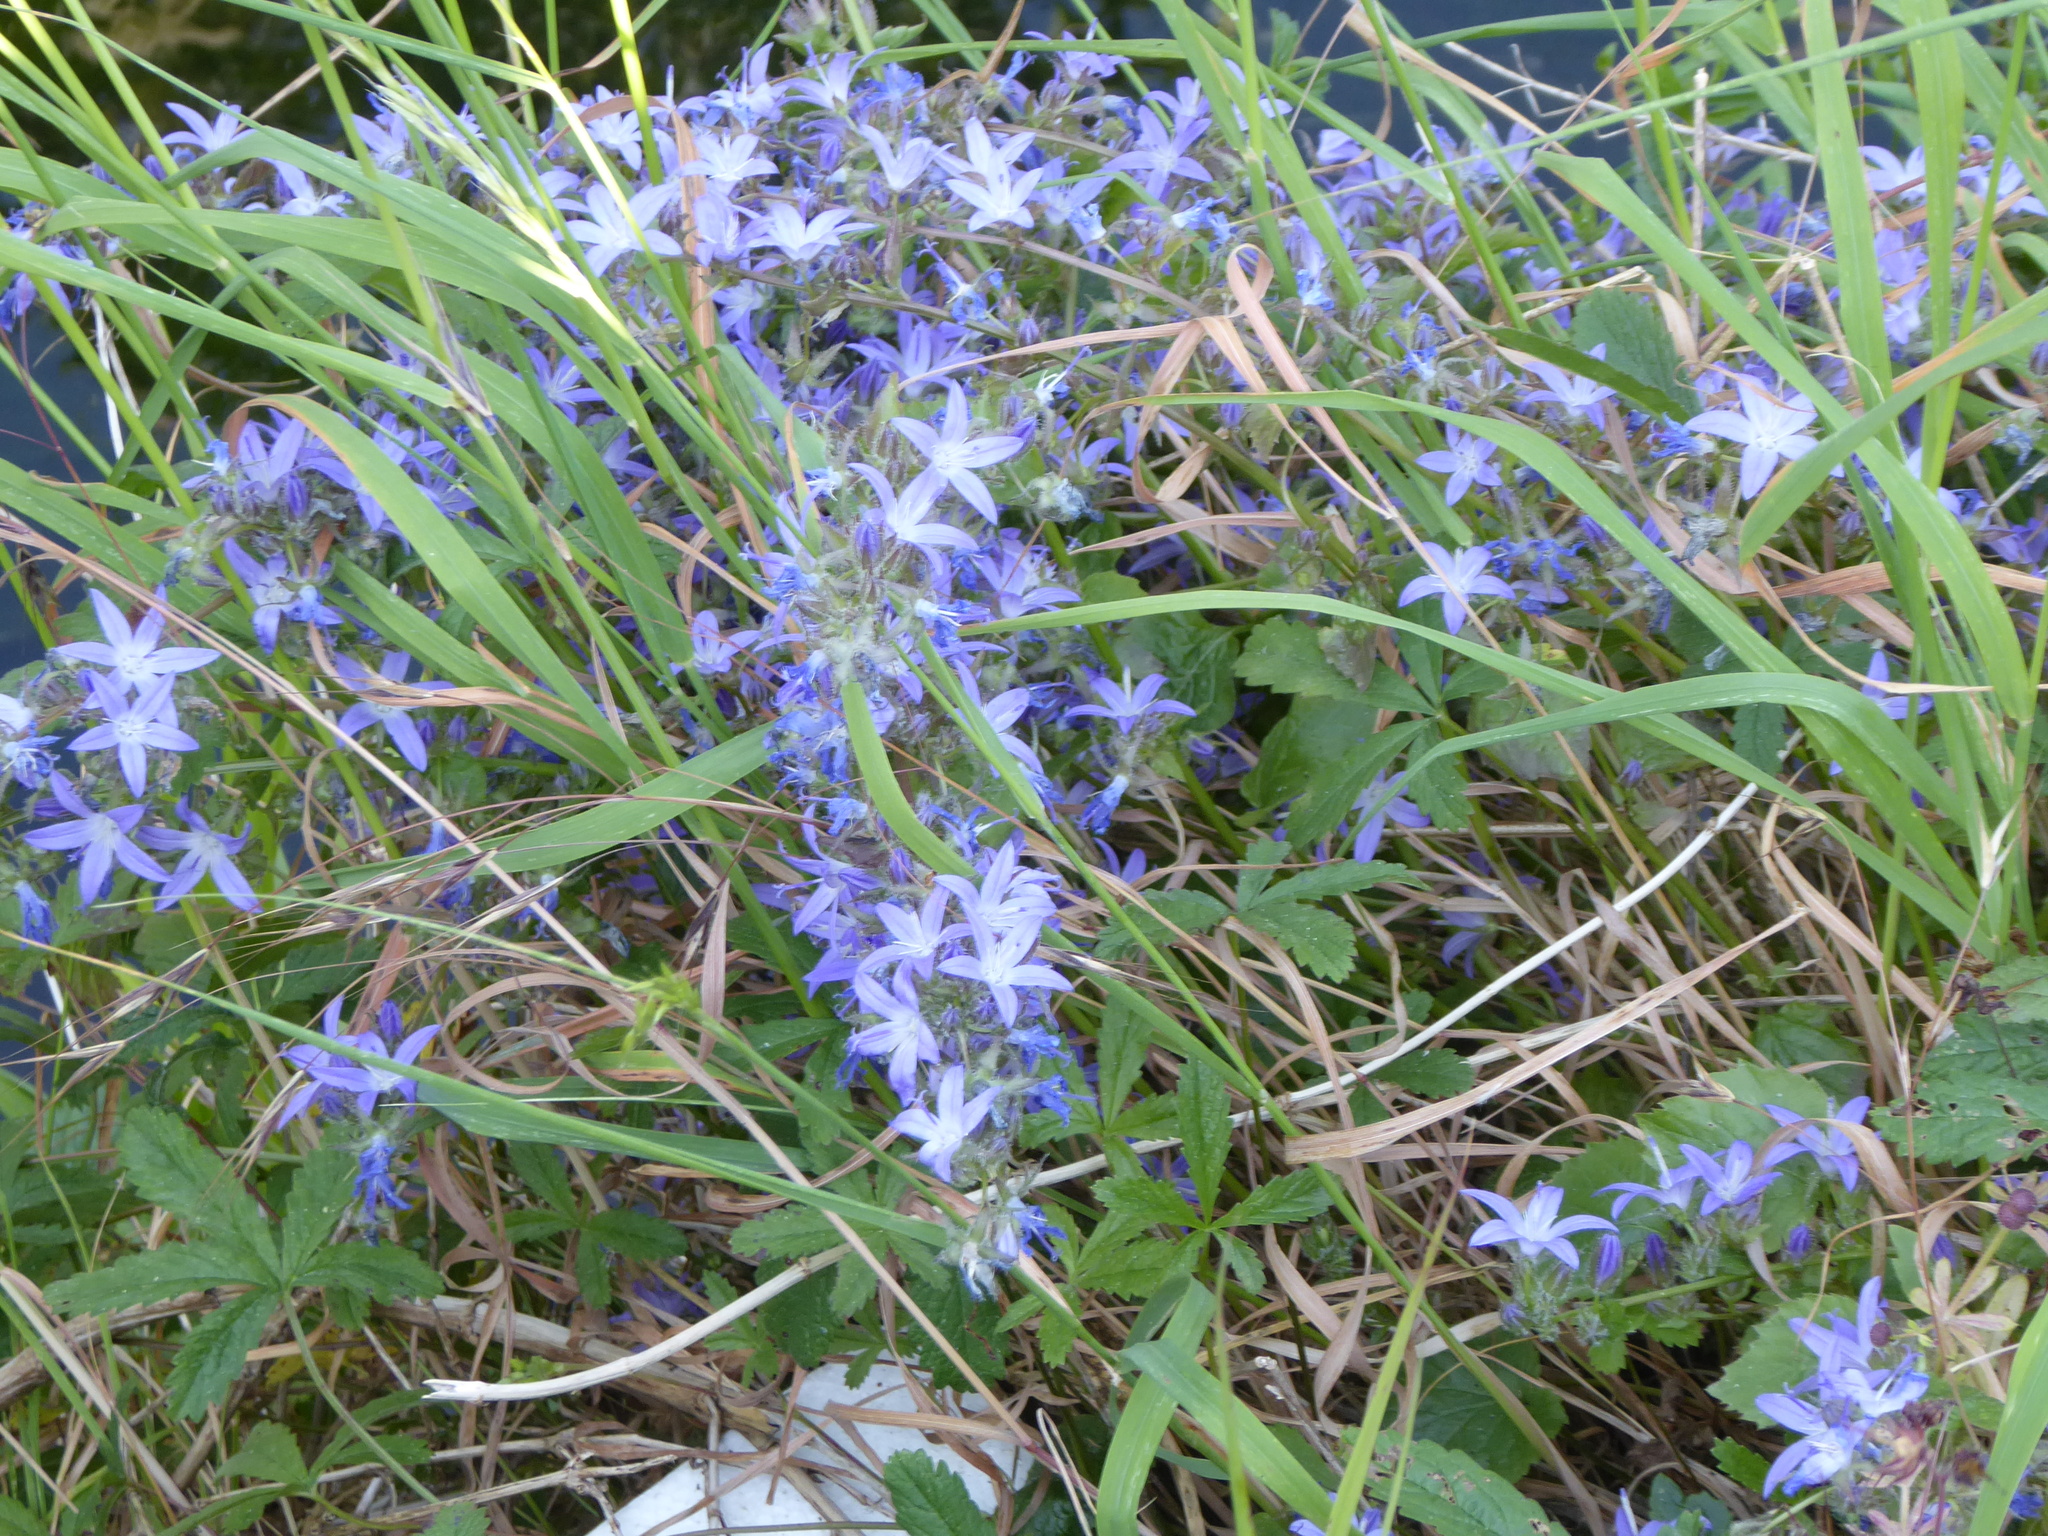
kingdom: Plantae
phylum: Tracheophyta
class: Magnoliopsida
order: Asterales
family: Campanulaceae
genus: Campanula
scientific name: Campanula poscharskyana
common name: Trailing bellflower
